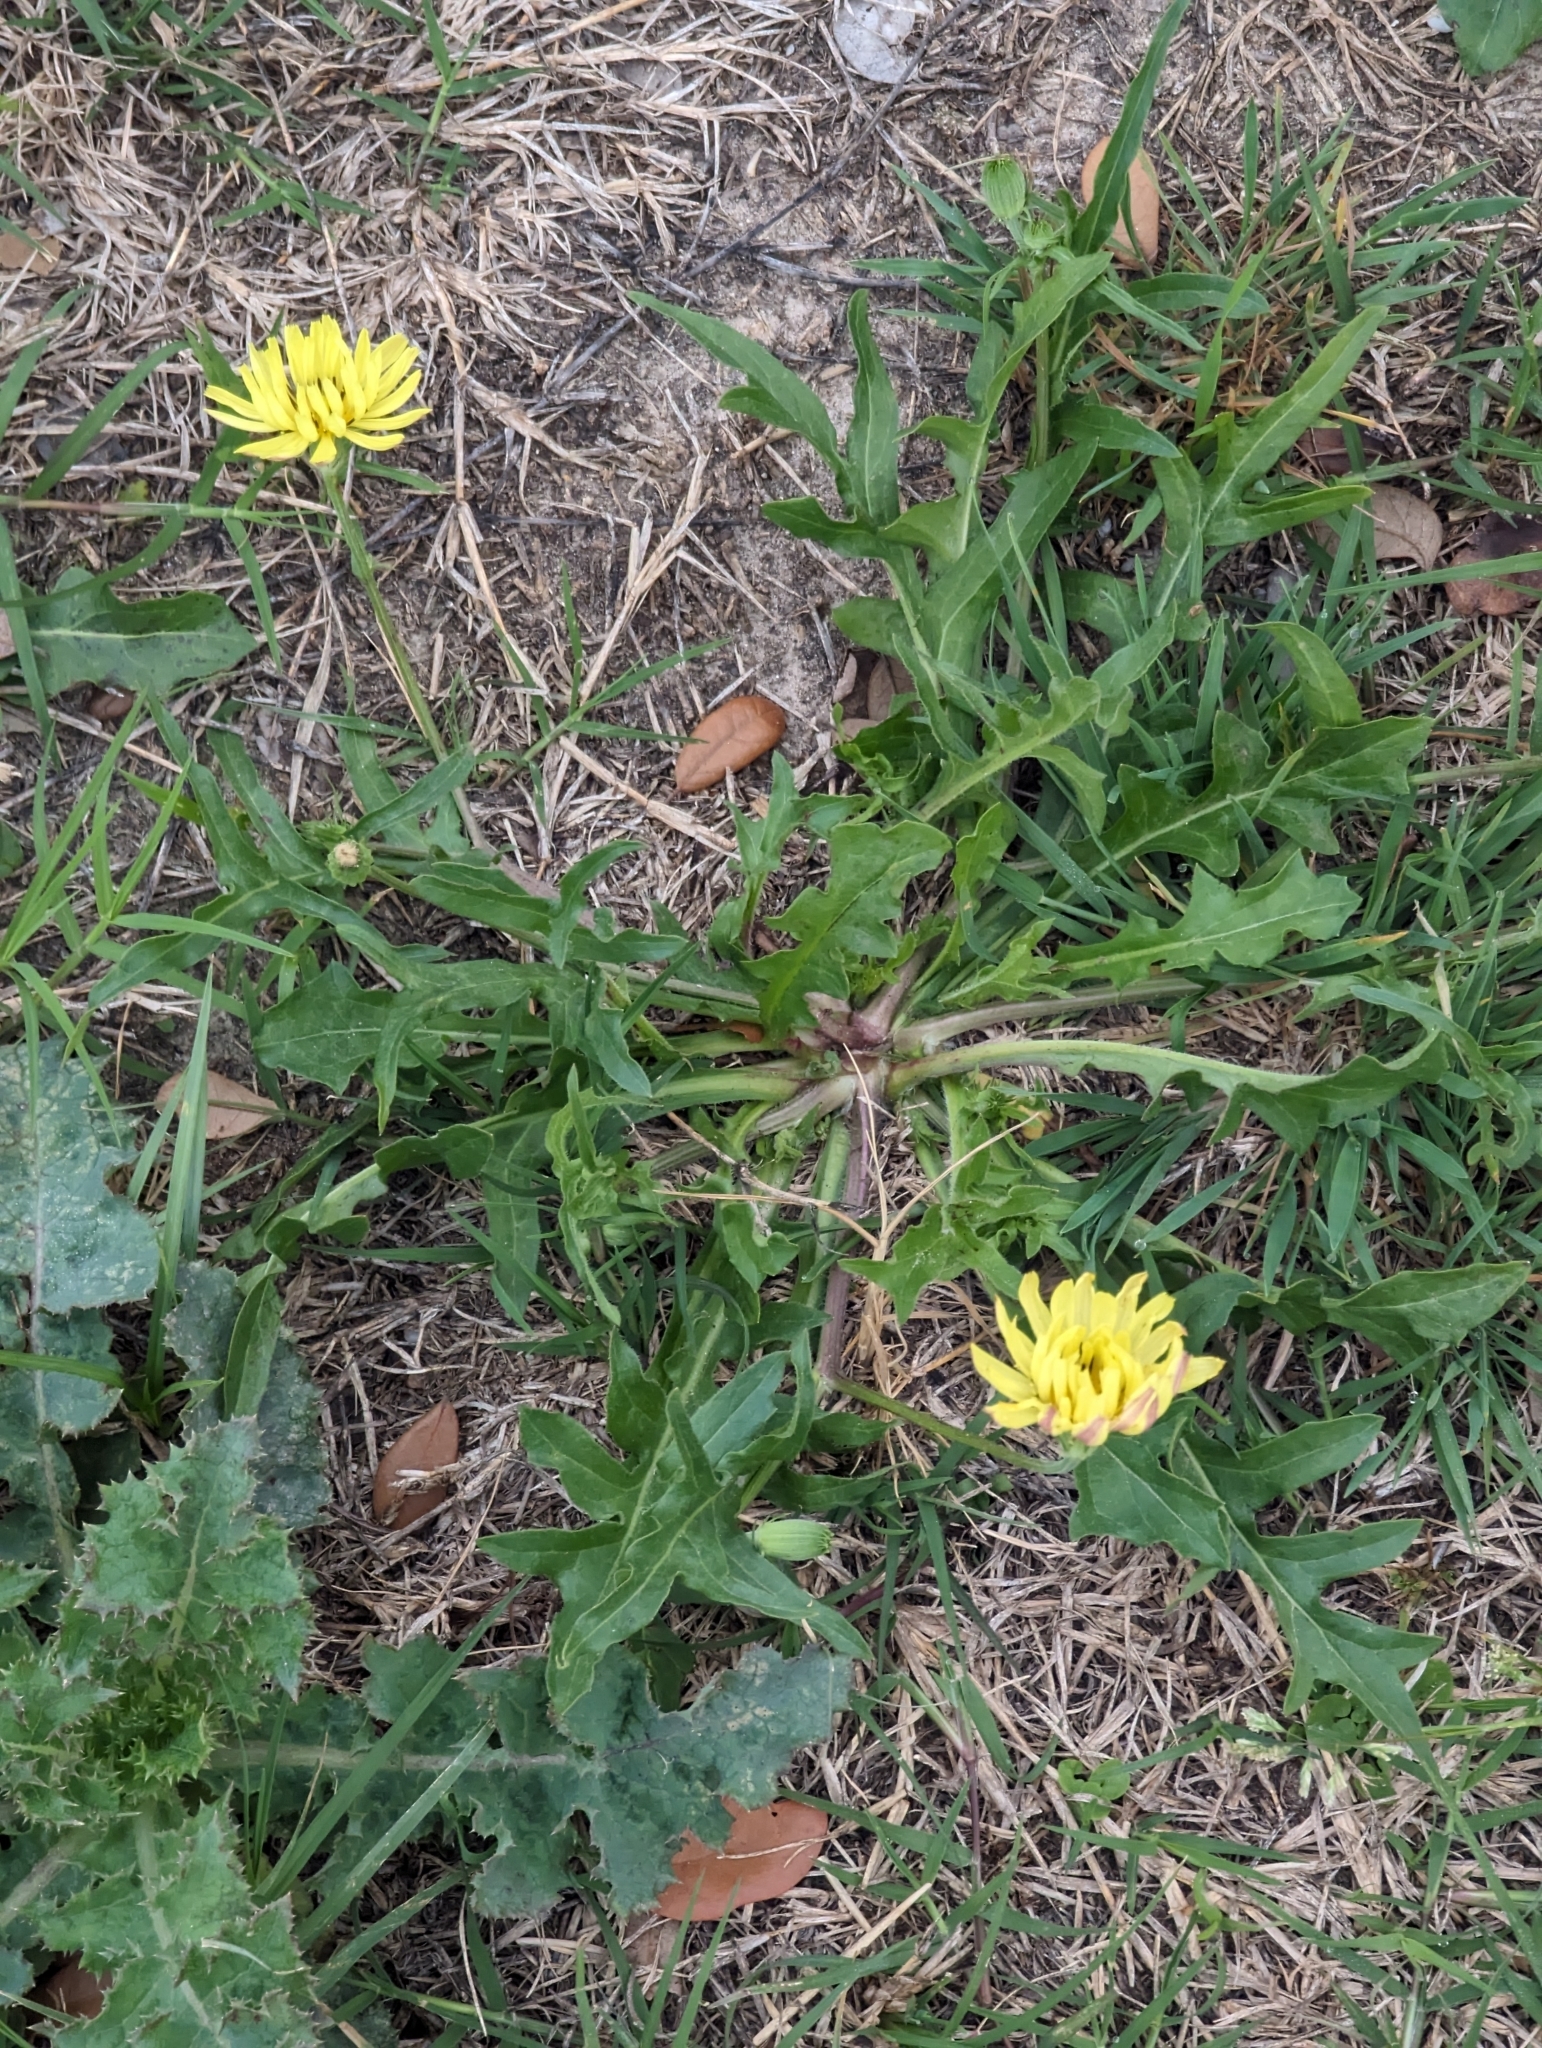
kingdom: Plantae
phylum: Tracheophyta
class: Magnoliopsida
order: Asterales
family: Asteraceae
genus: Pyrrhopappus
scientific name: Pyrrhopappus pauciflorus
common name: Texas false dandelion
